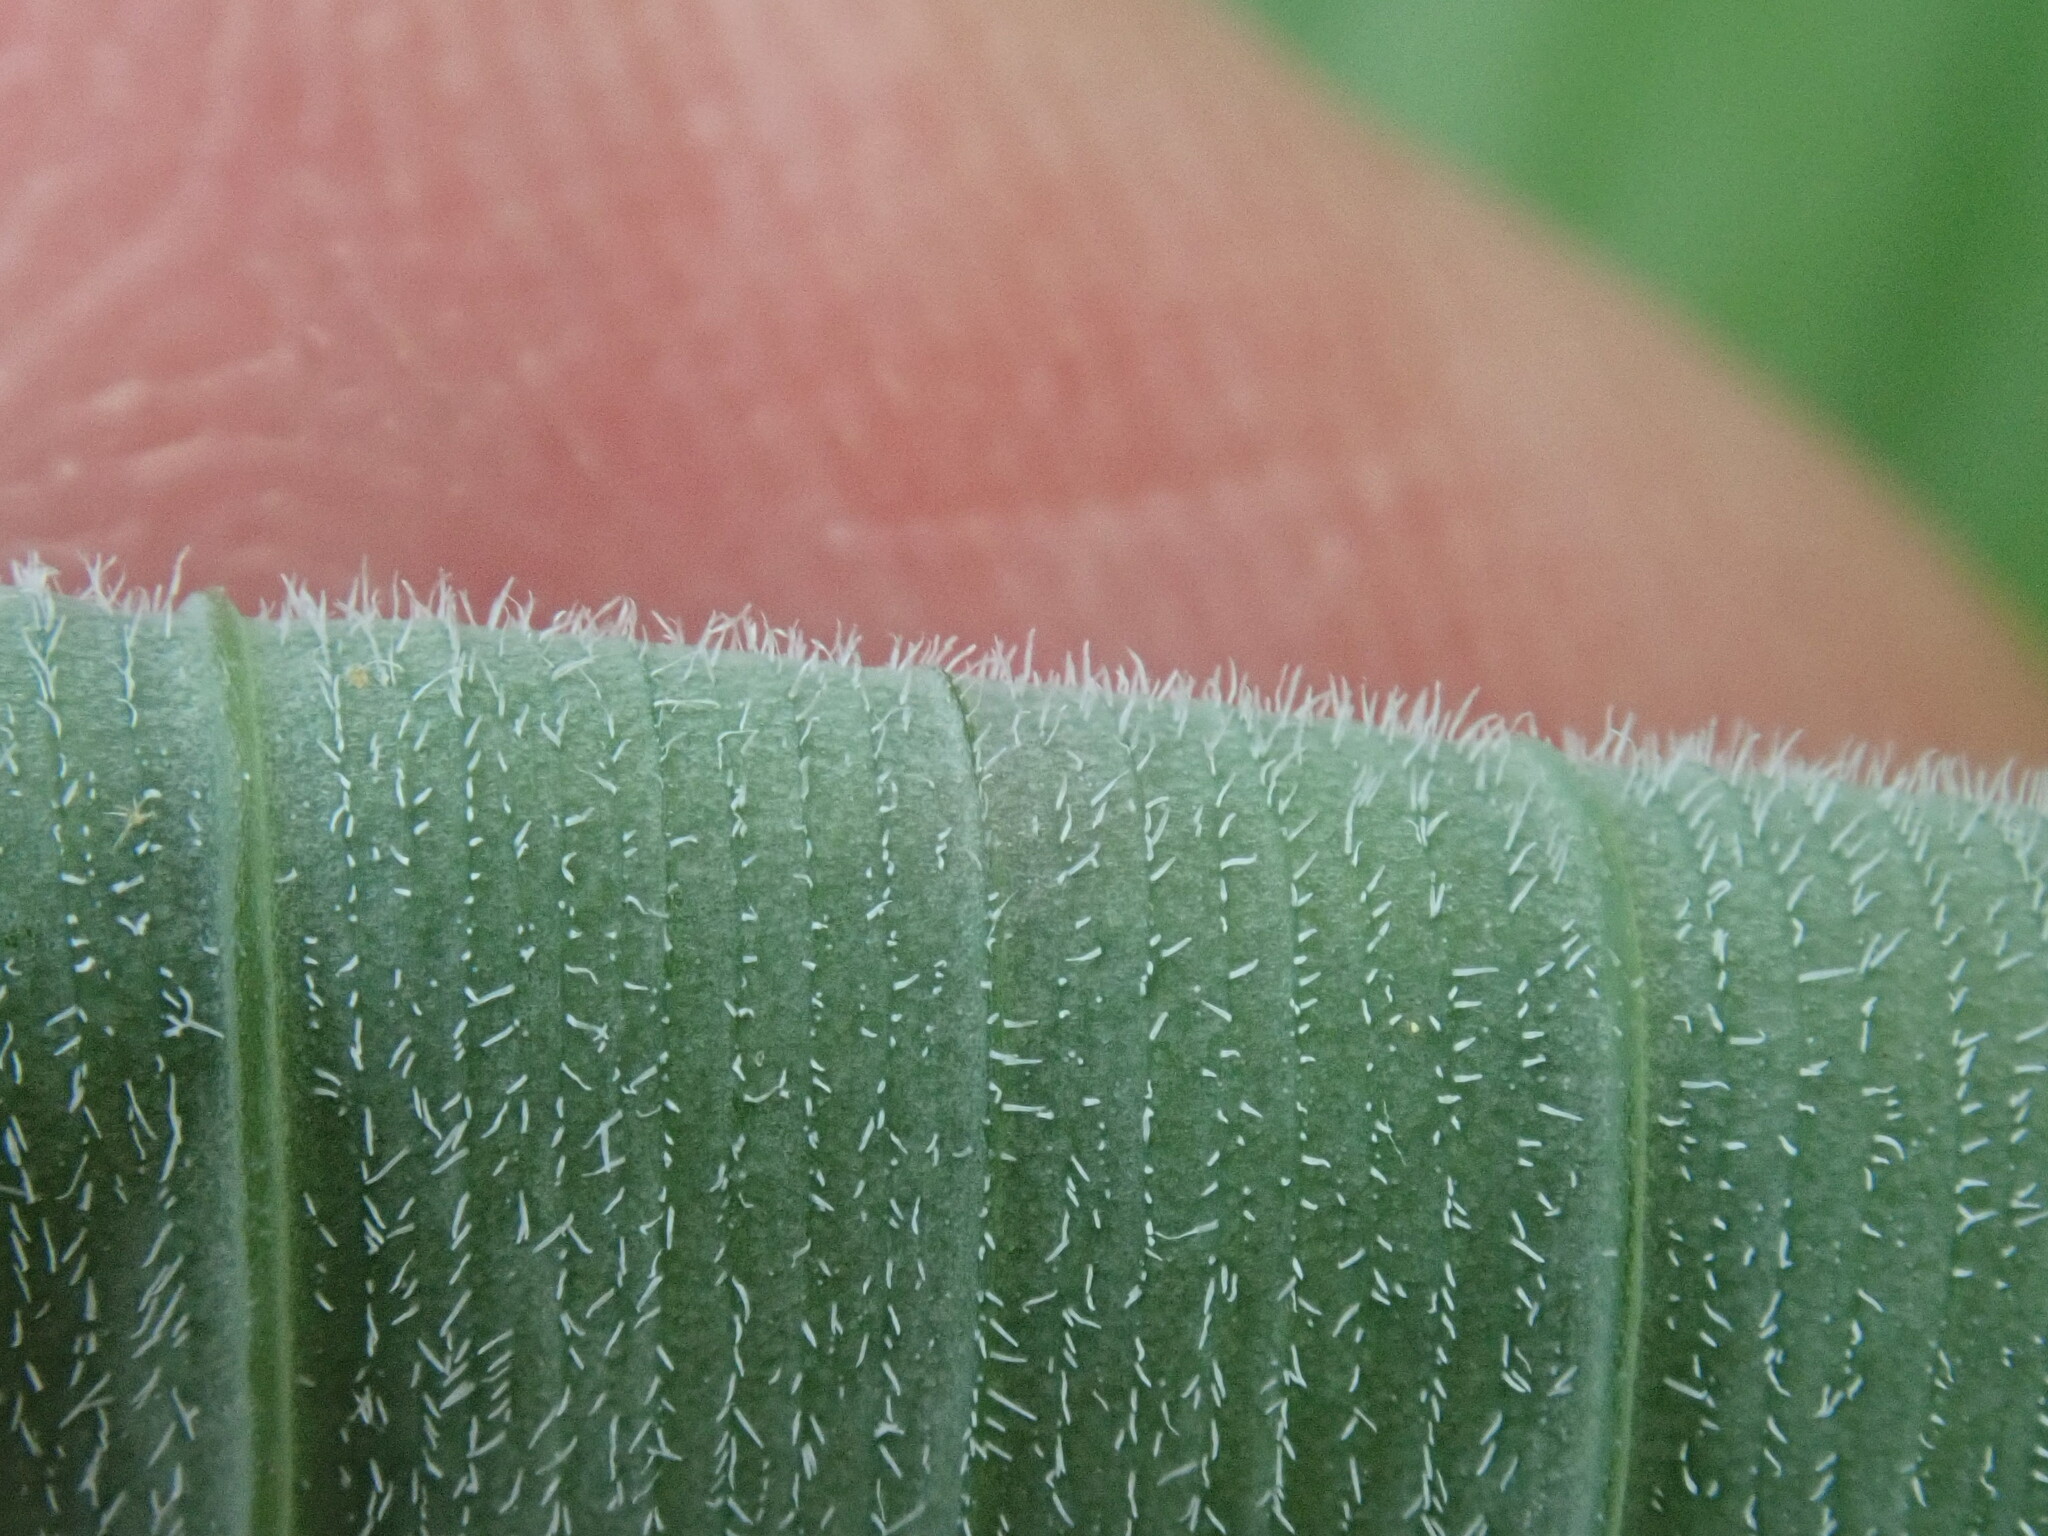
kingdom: Plantae
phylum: Tracheophyta
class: Liliopsida
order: Asparagales
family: Asparagaceae
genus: Polygonatum
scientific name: Polygonatum pubescens
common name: Downy solomon's seal
